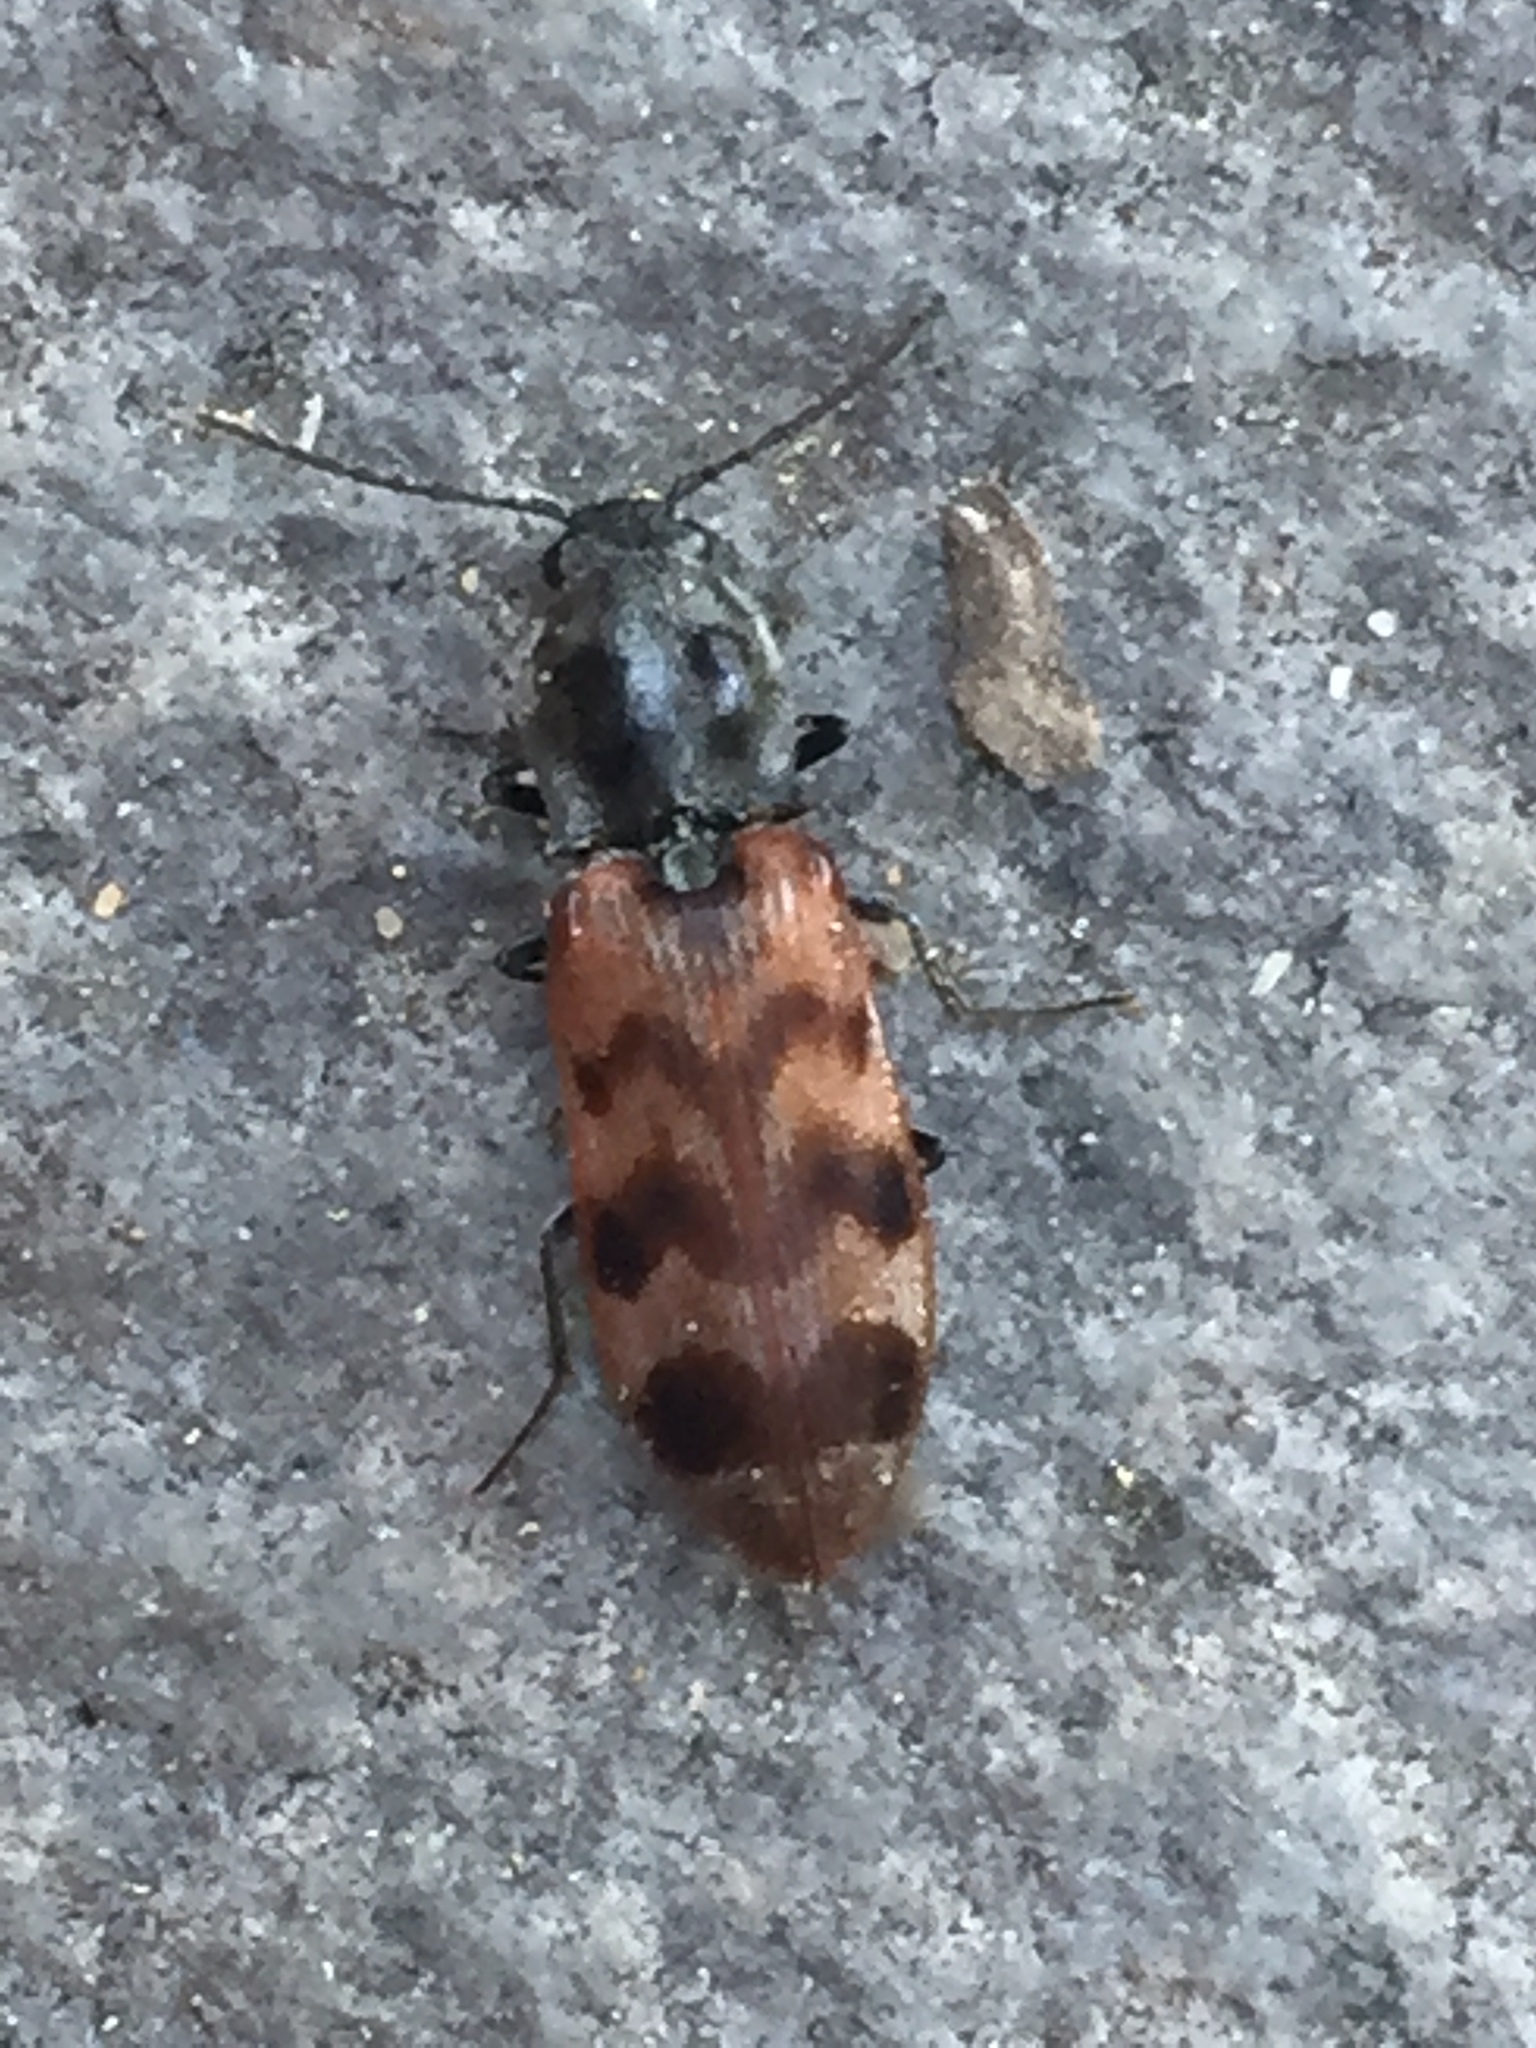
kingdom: Animalia
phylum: Arthropoda
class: Insecta
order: Coleoptera
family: Elateridae
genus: Pseudanostirus
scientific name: Pseudanostirus tigrinus
